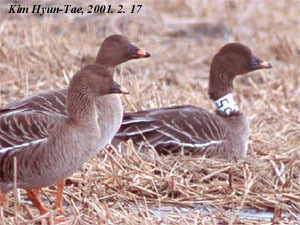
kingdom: Animalia
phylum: Chordata
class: Aves
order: Anseriformes
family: Anatidae
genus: Anser
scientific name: Anser fabalis
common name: Bean goose
